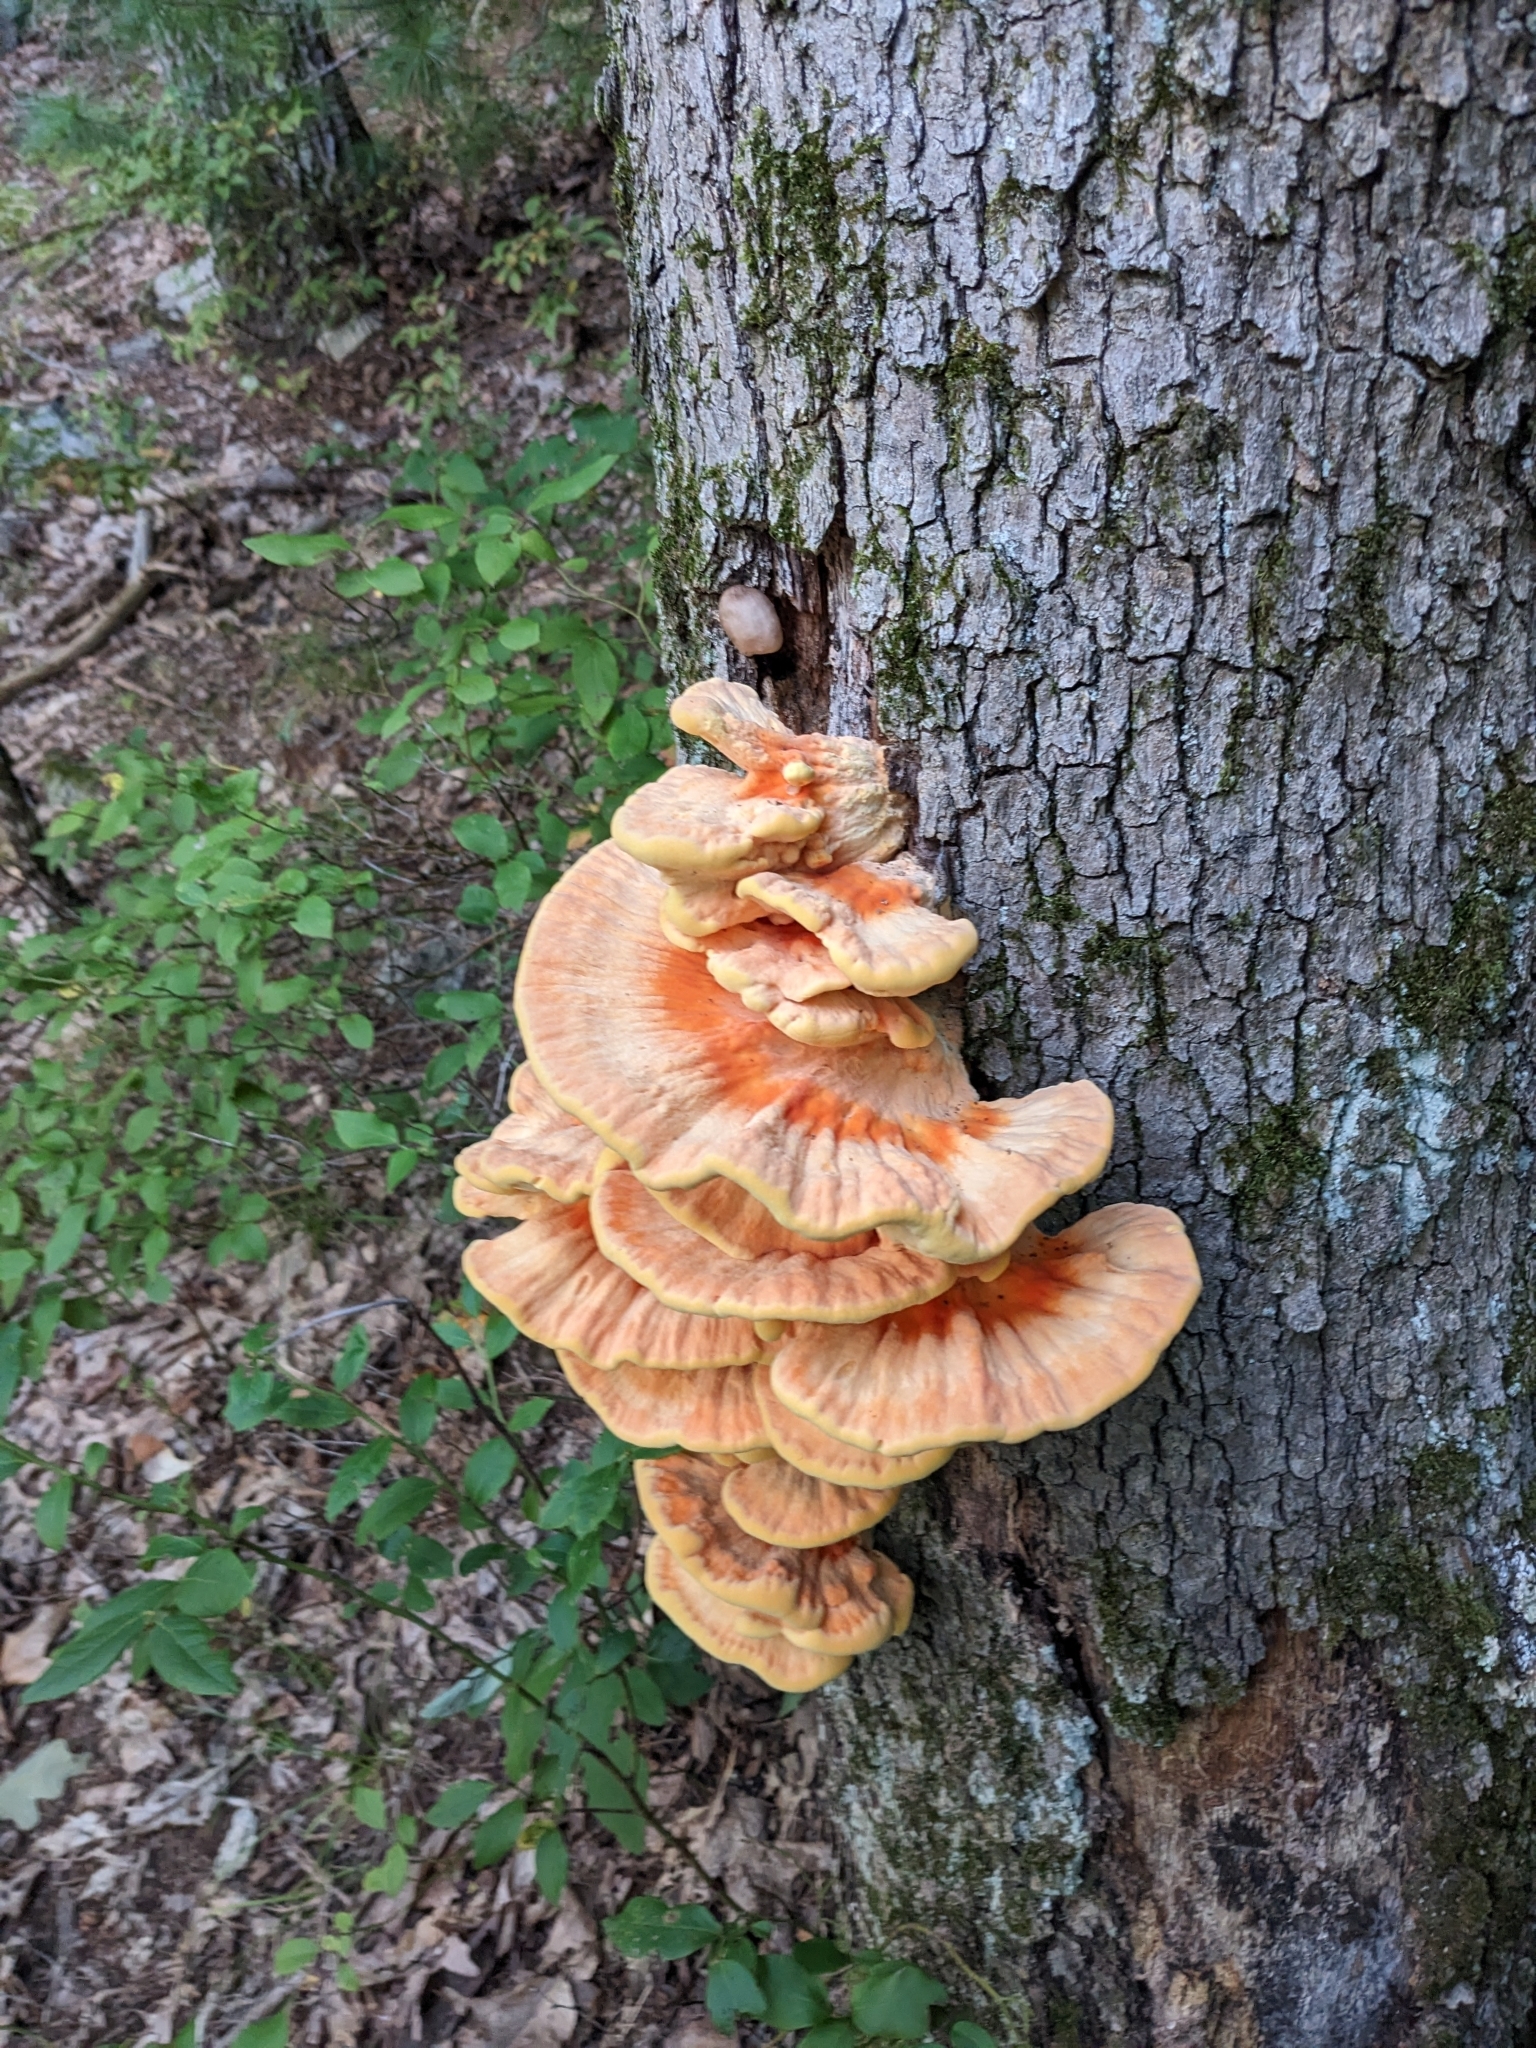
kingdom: Fungi
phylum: Basidiomycota
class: Agaricomycetes
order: Polyporales
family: Laetiporaceae
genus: Laetiporus
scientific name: Laetiporus sulphureus
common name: Chicken of the woods
